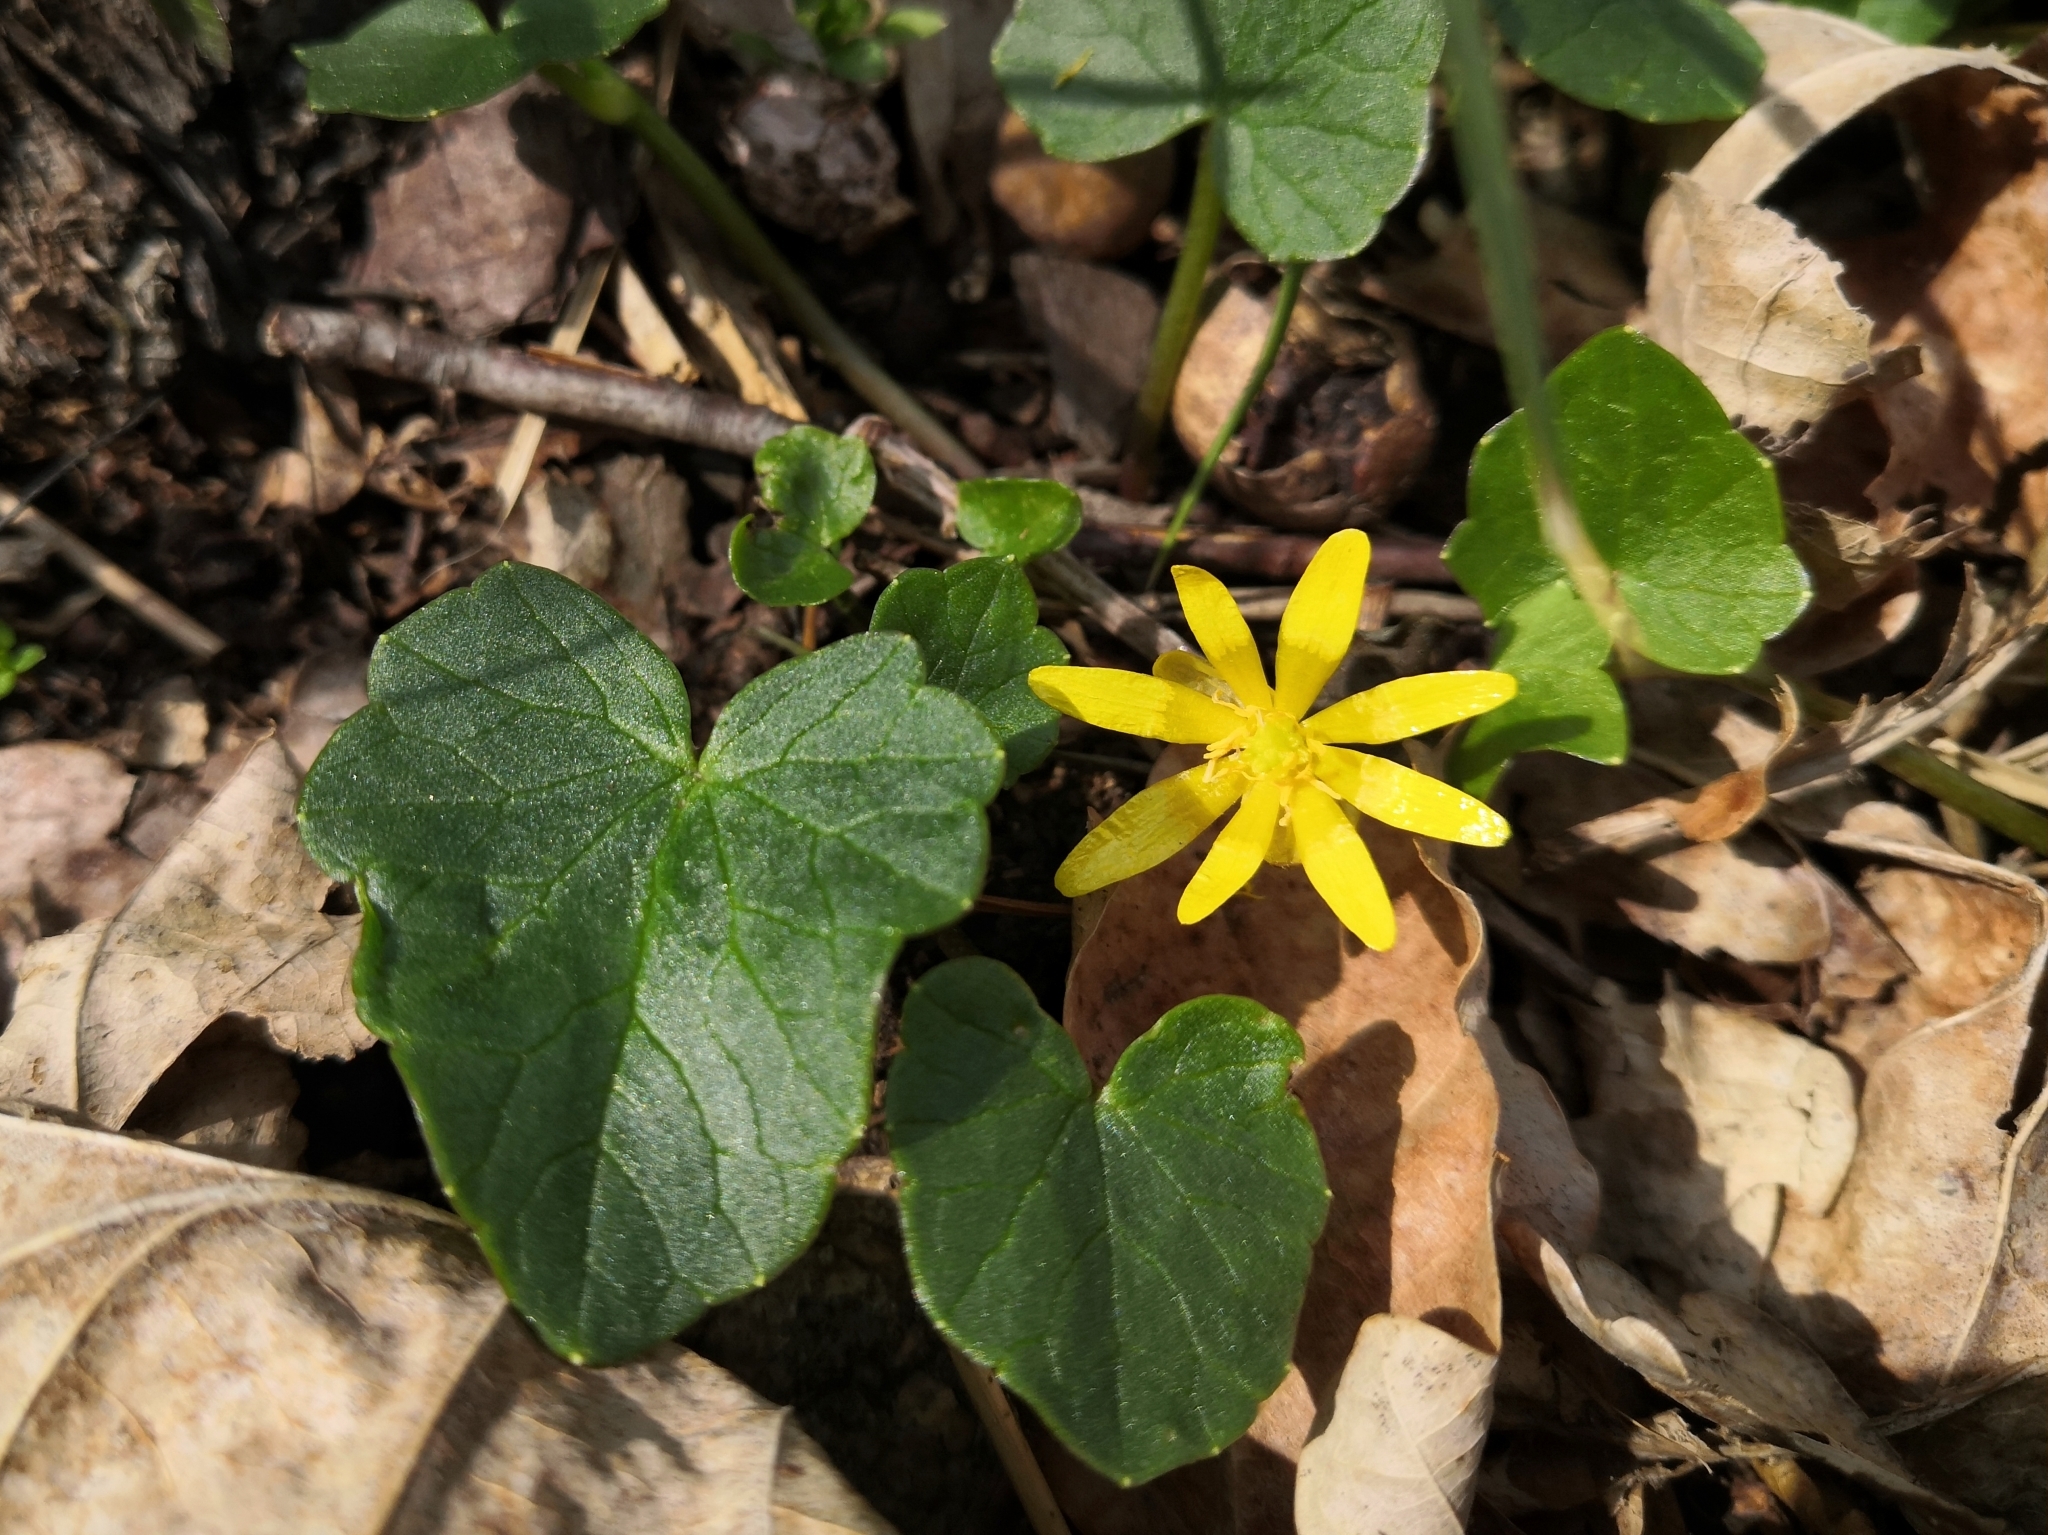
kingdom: Plantae
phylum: Tracheophyta
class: Magnoliopsida
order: Ranunculales
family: Ranunculaceae
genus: Ficaria
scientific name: Ficaria verna
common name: Lesser celandine
